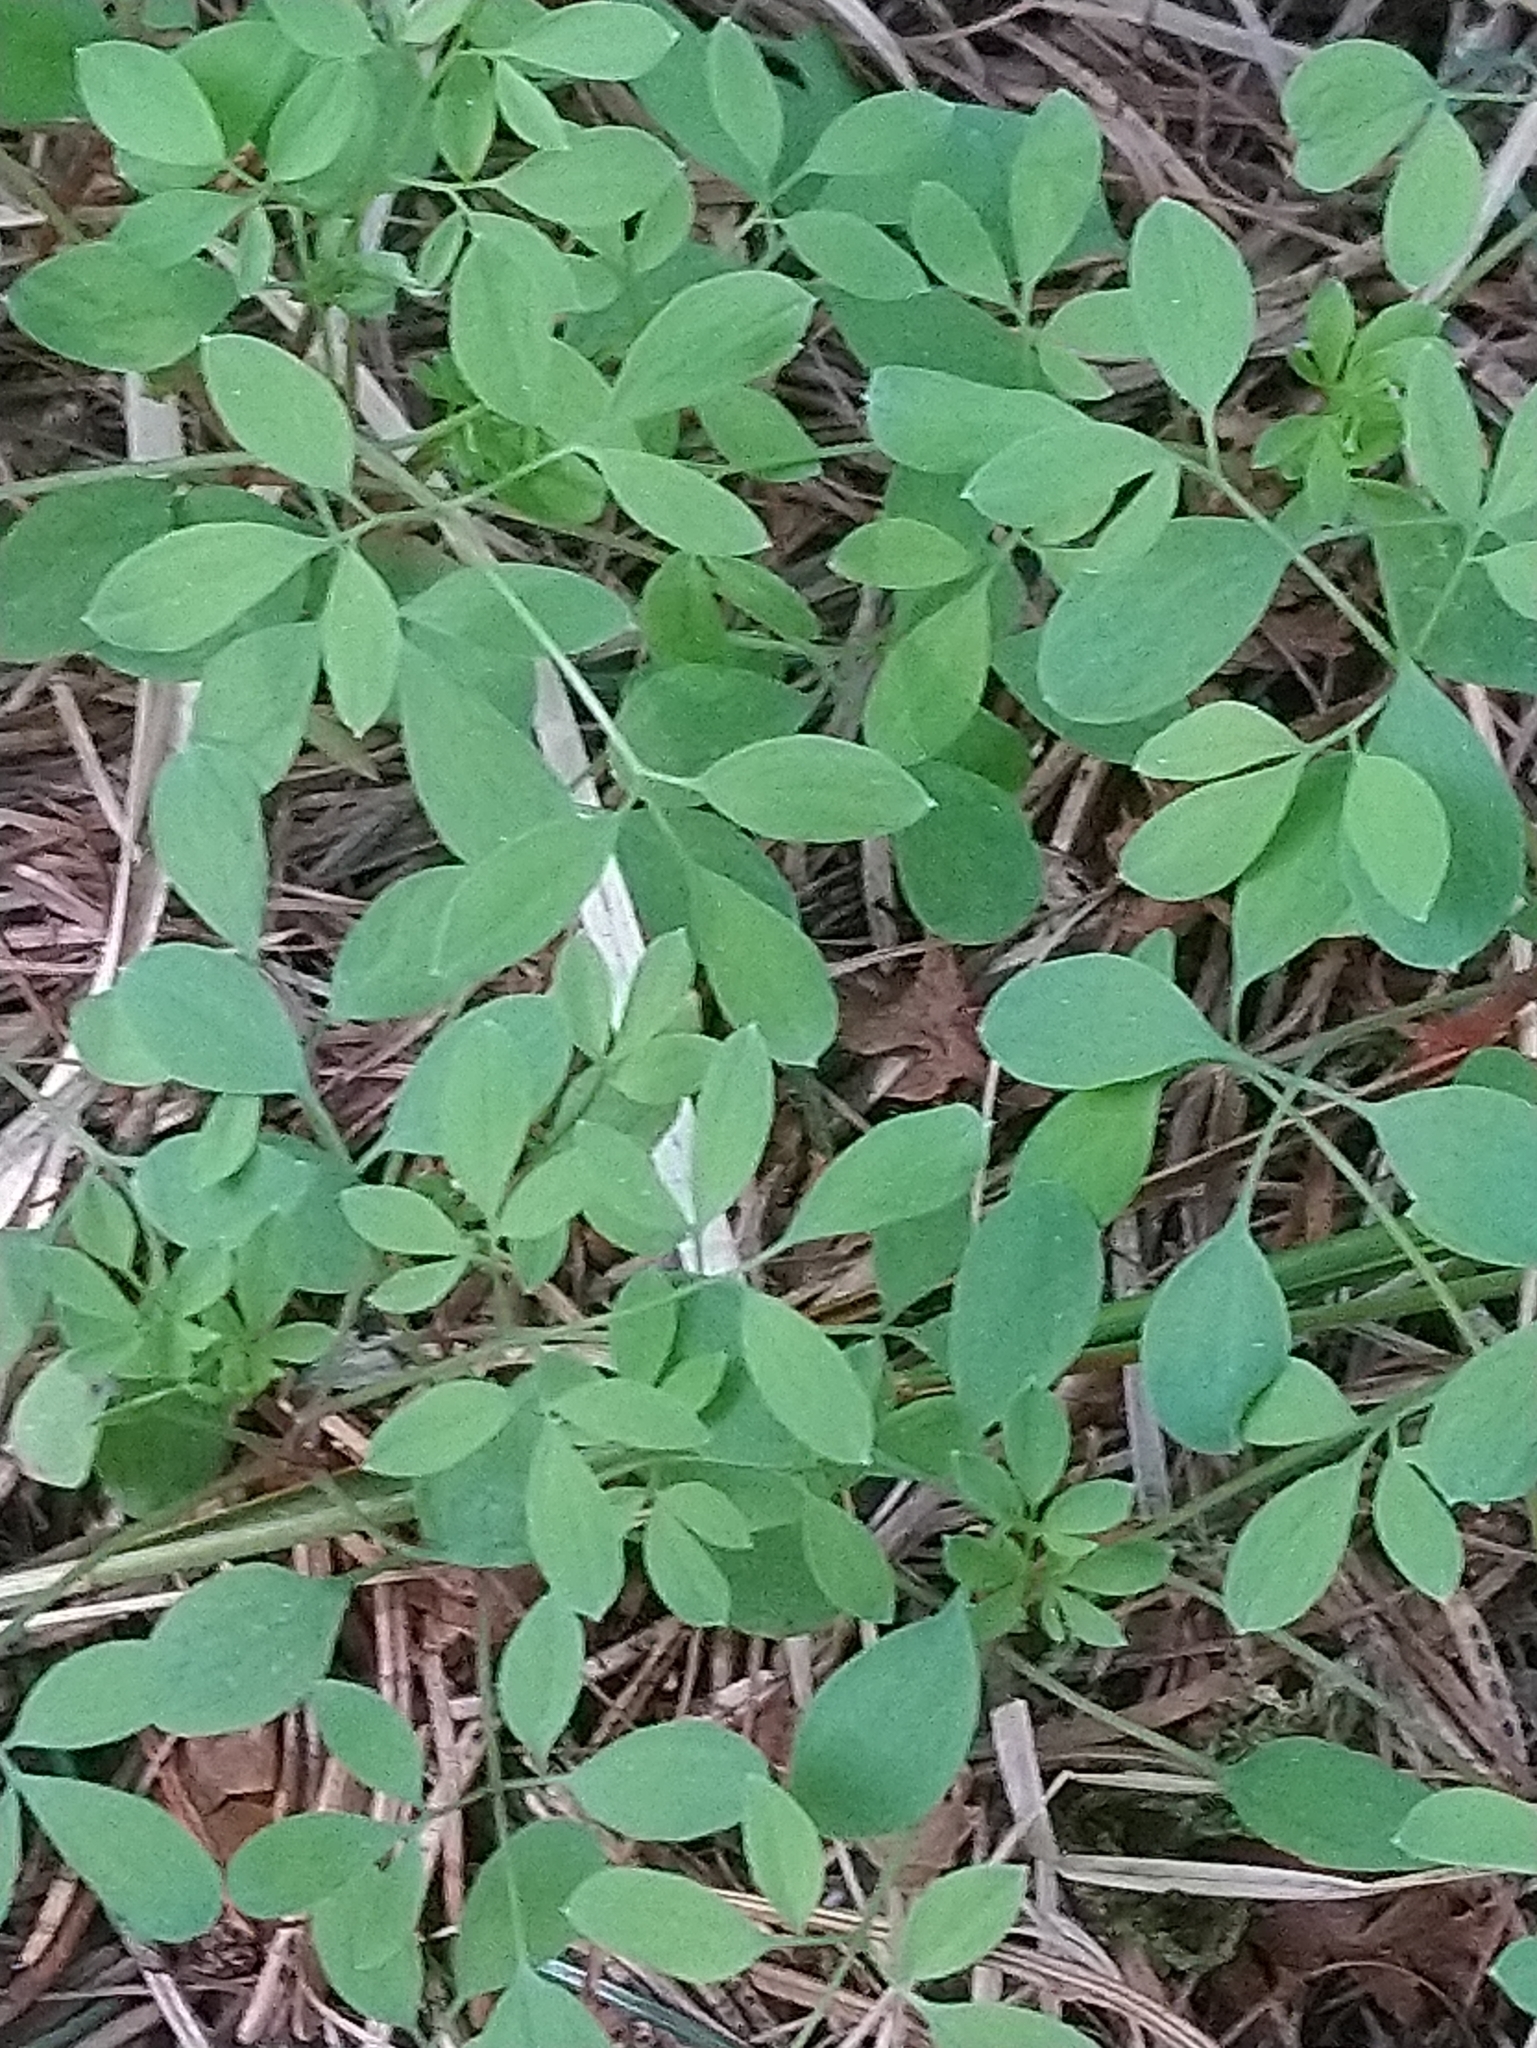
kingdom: Plantae
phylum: Tracheophyta
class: Magnoliopsida
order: Ranunculales
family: Papaveraceae
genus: Ceratocapnos
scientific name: Ceratocapnos claviculata
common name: Climbing corydalis
